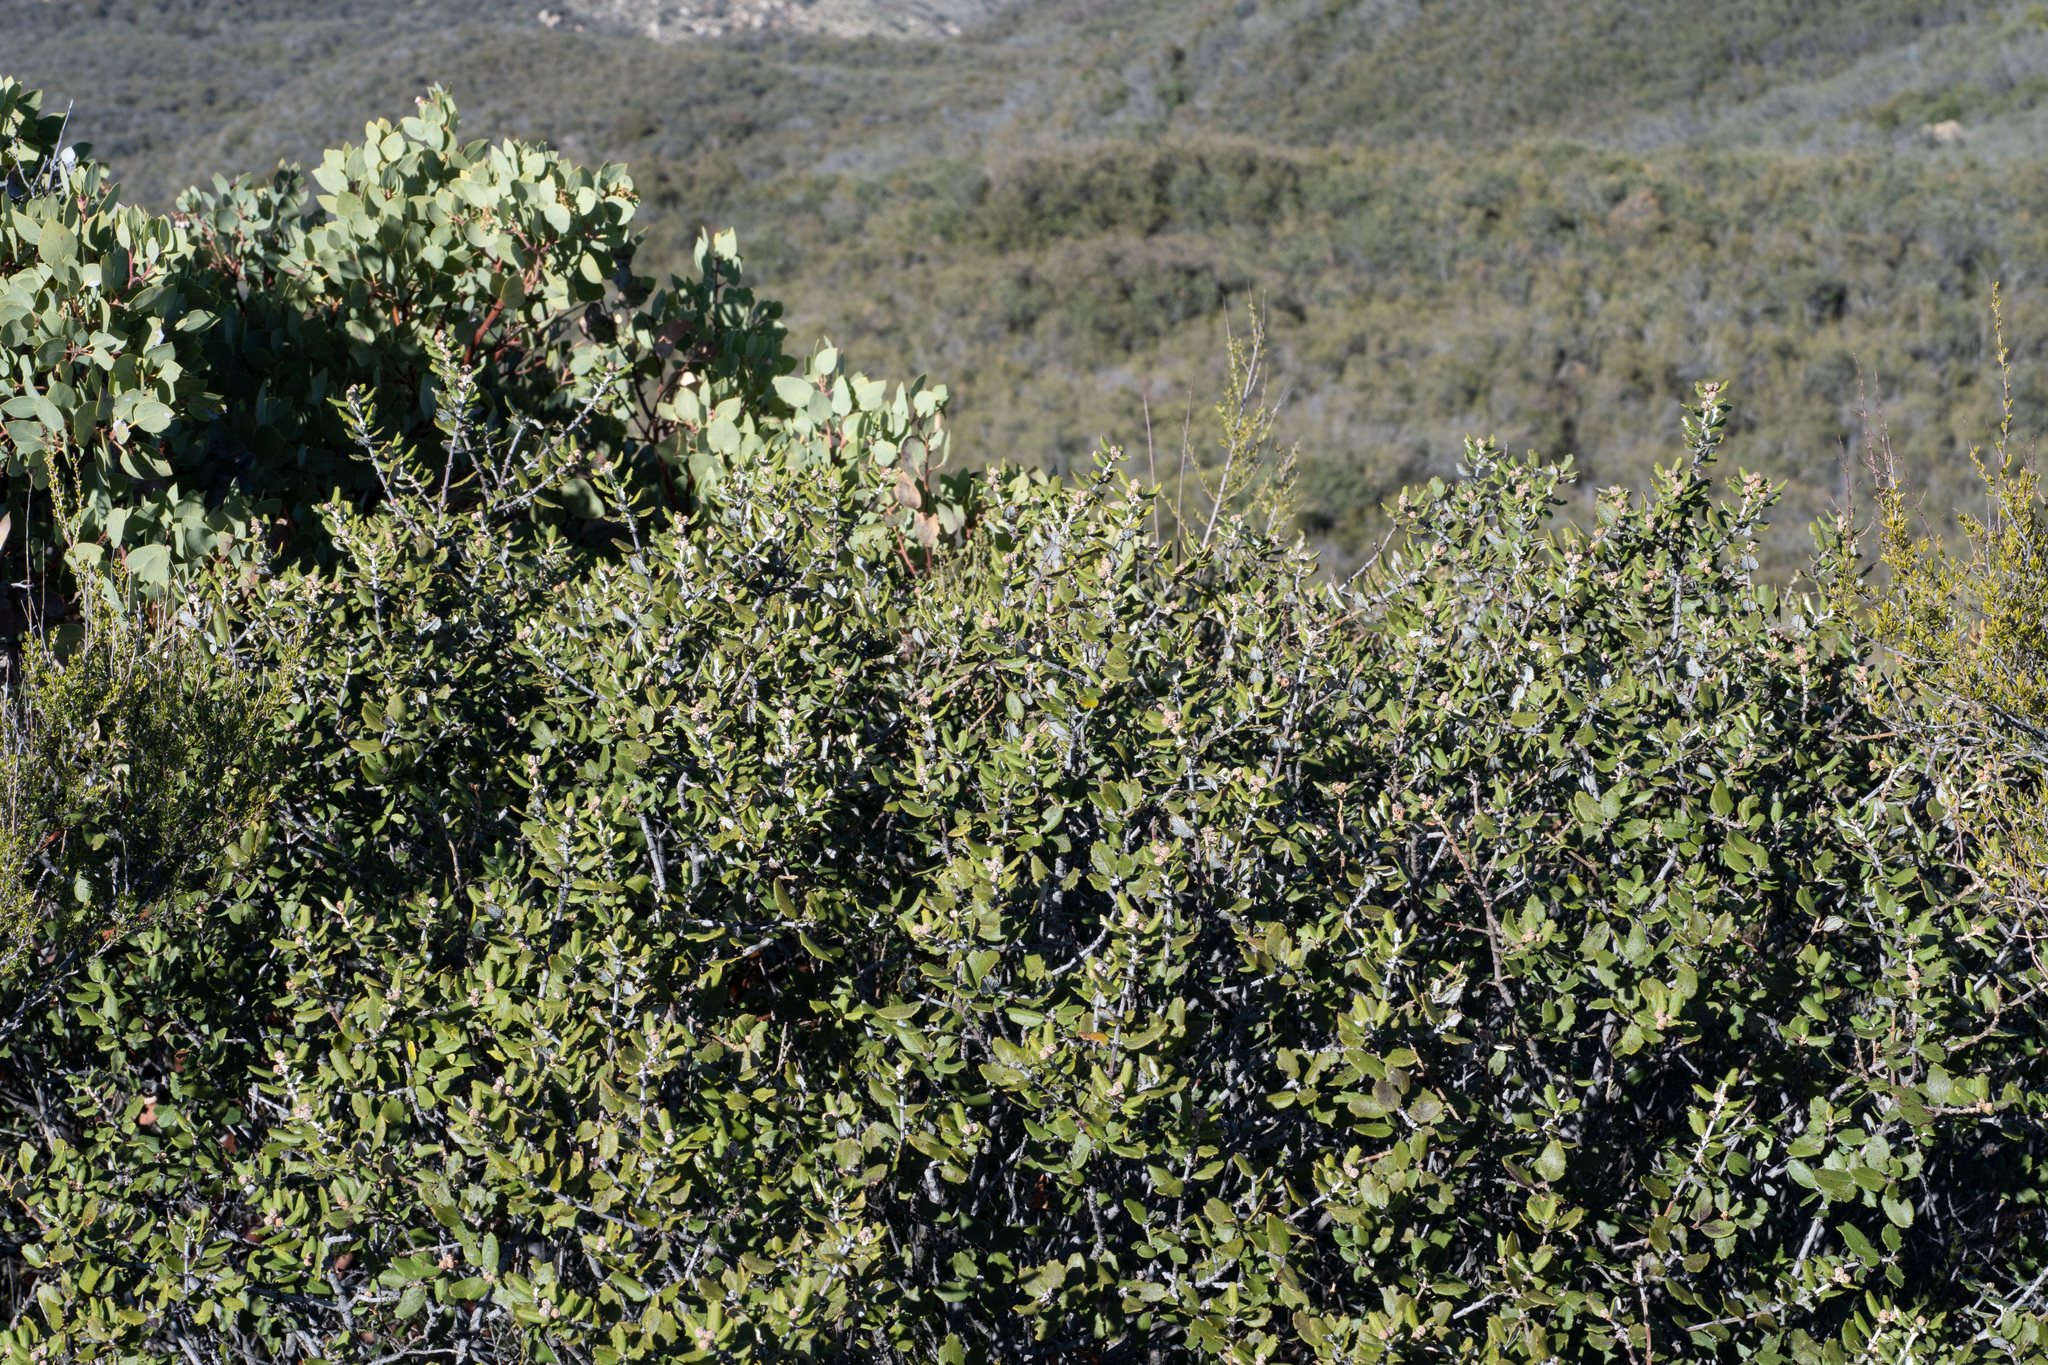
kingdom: Plantae
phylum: Tracheophyta
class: Magnoliopsida
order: Rosales
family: Rhamnaceae
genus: Ceanothus
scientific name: Ceanothus crassifolius
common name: Hoaryleaf ceanothus
